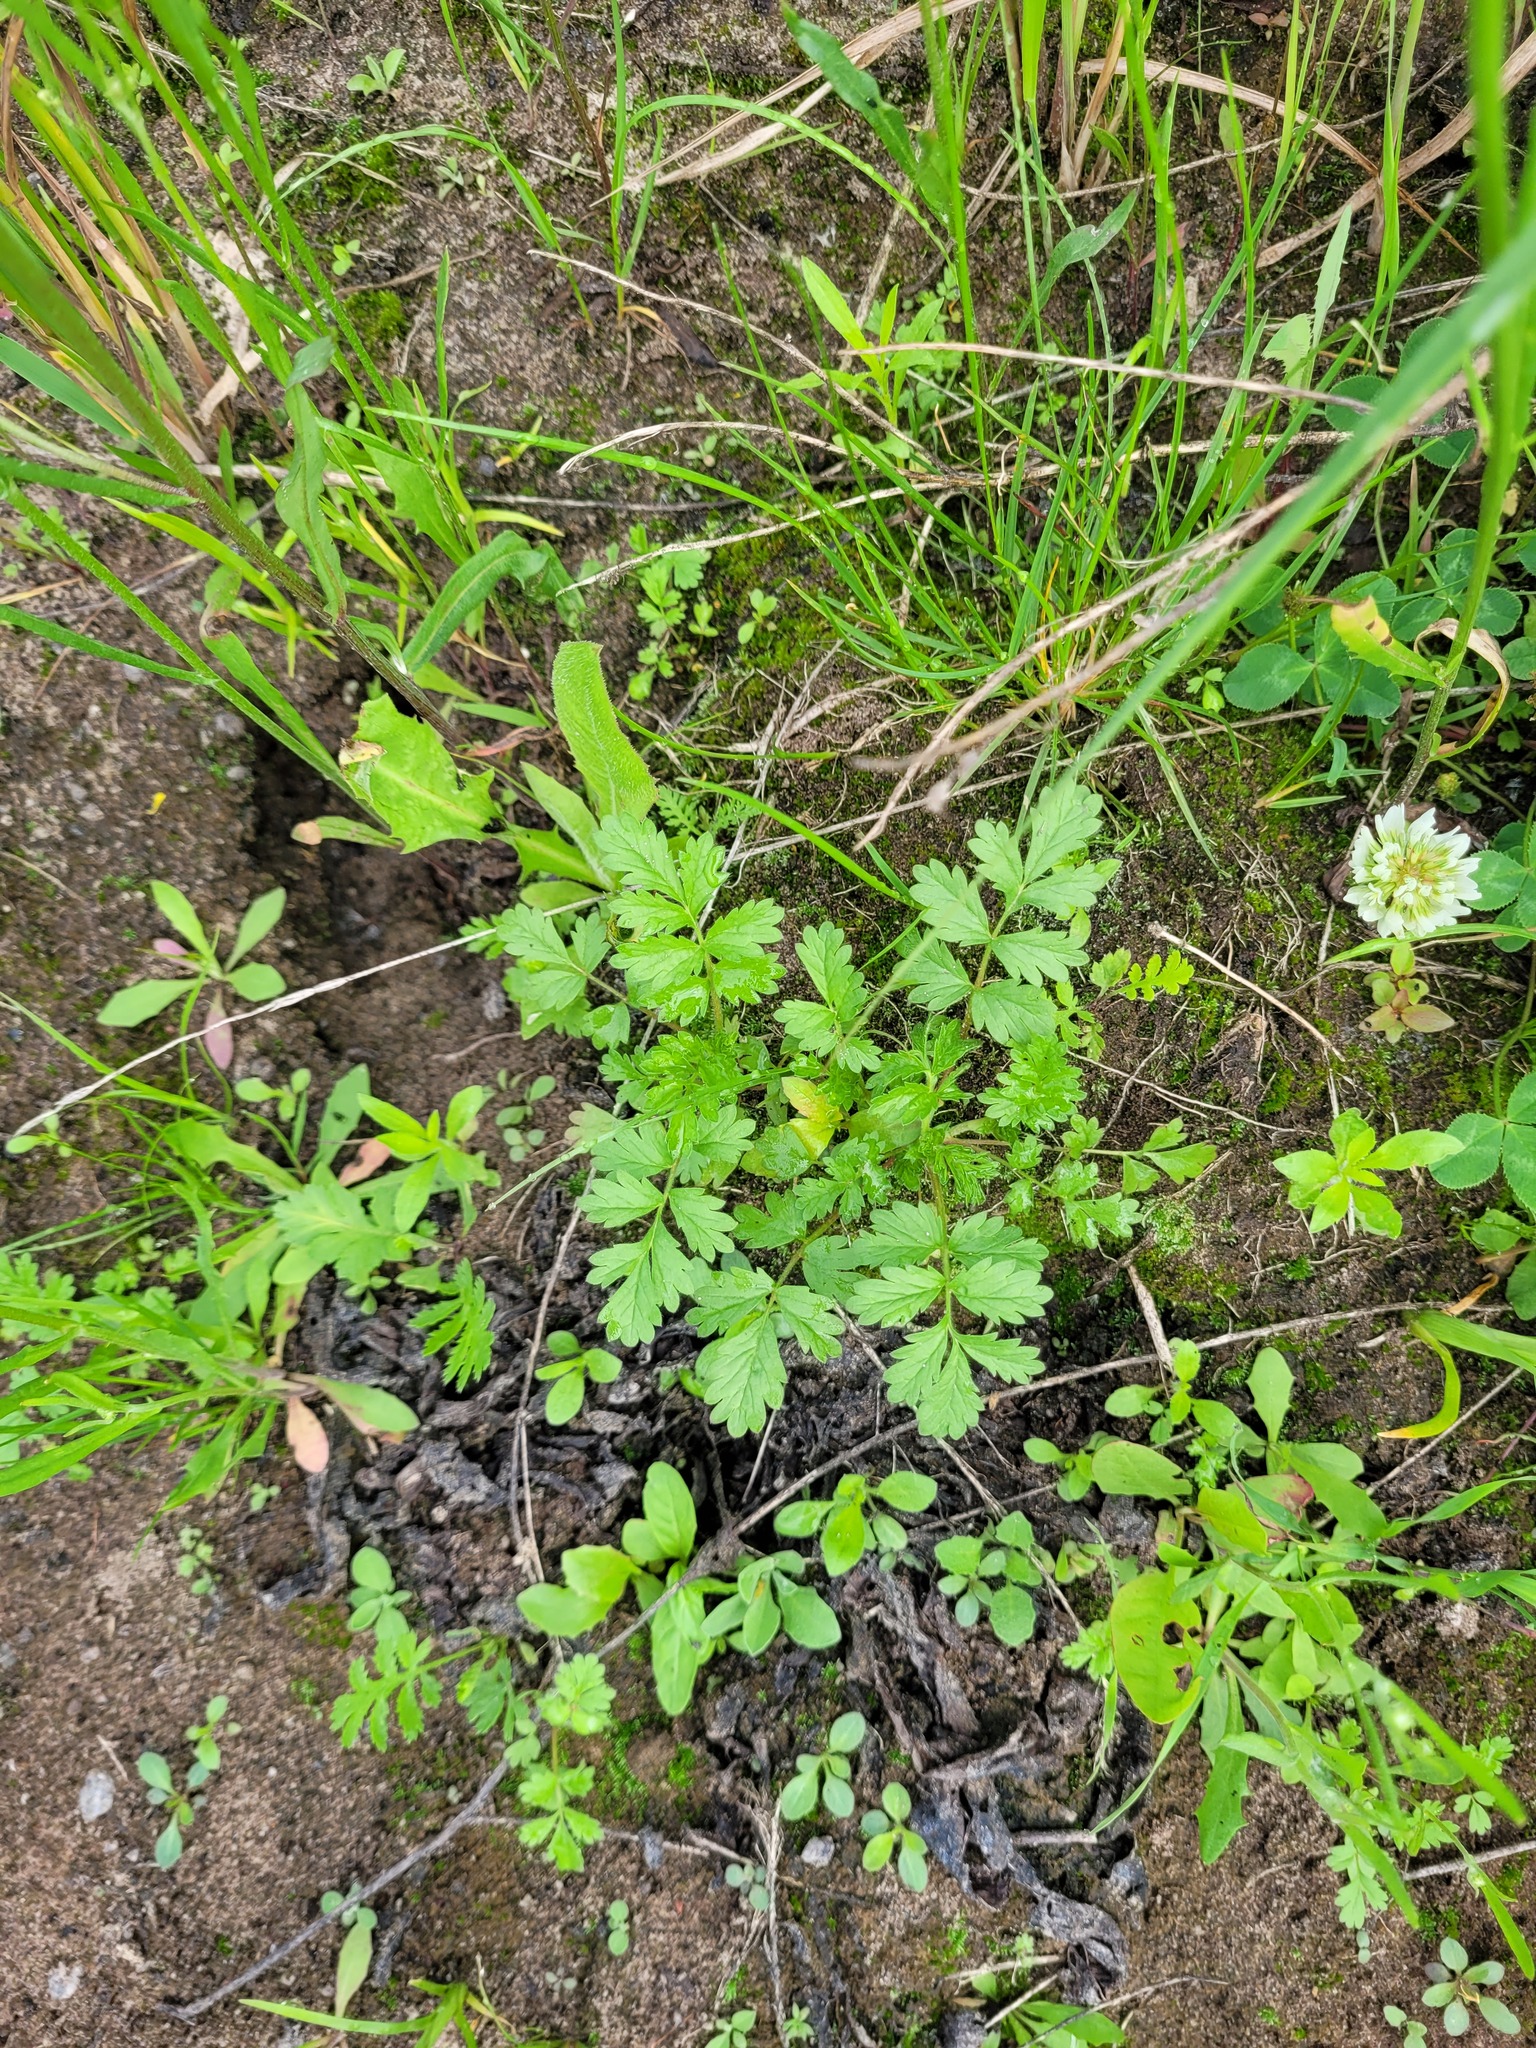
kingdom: Plantae
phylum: Tracheophyta
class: Magnoliopsida
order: Rosales
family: Rosaceae
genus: Potentilla
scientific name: Potentilla supina
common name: Prostrate cinquefoil
